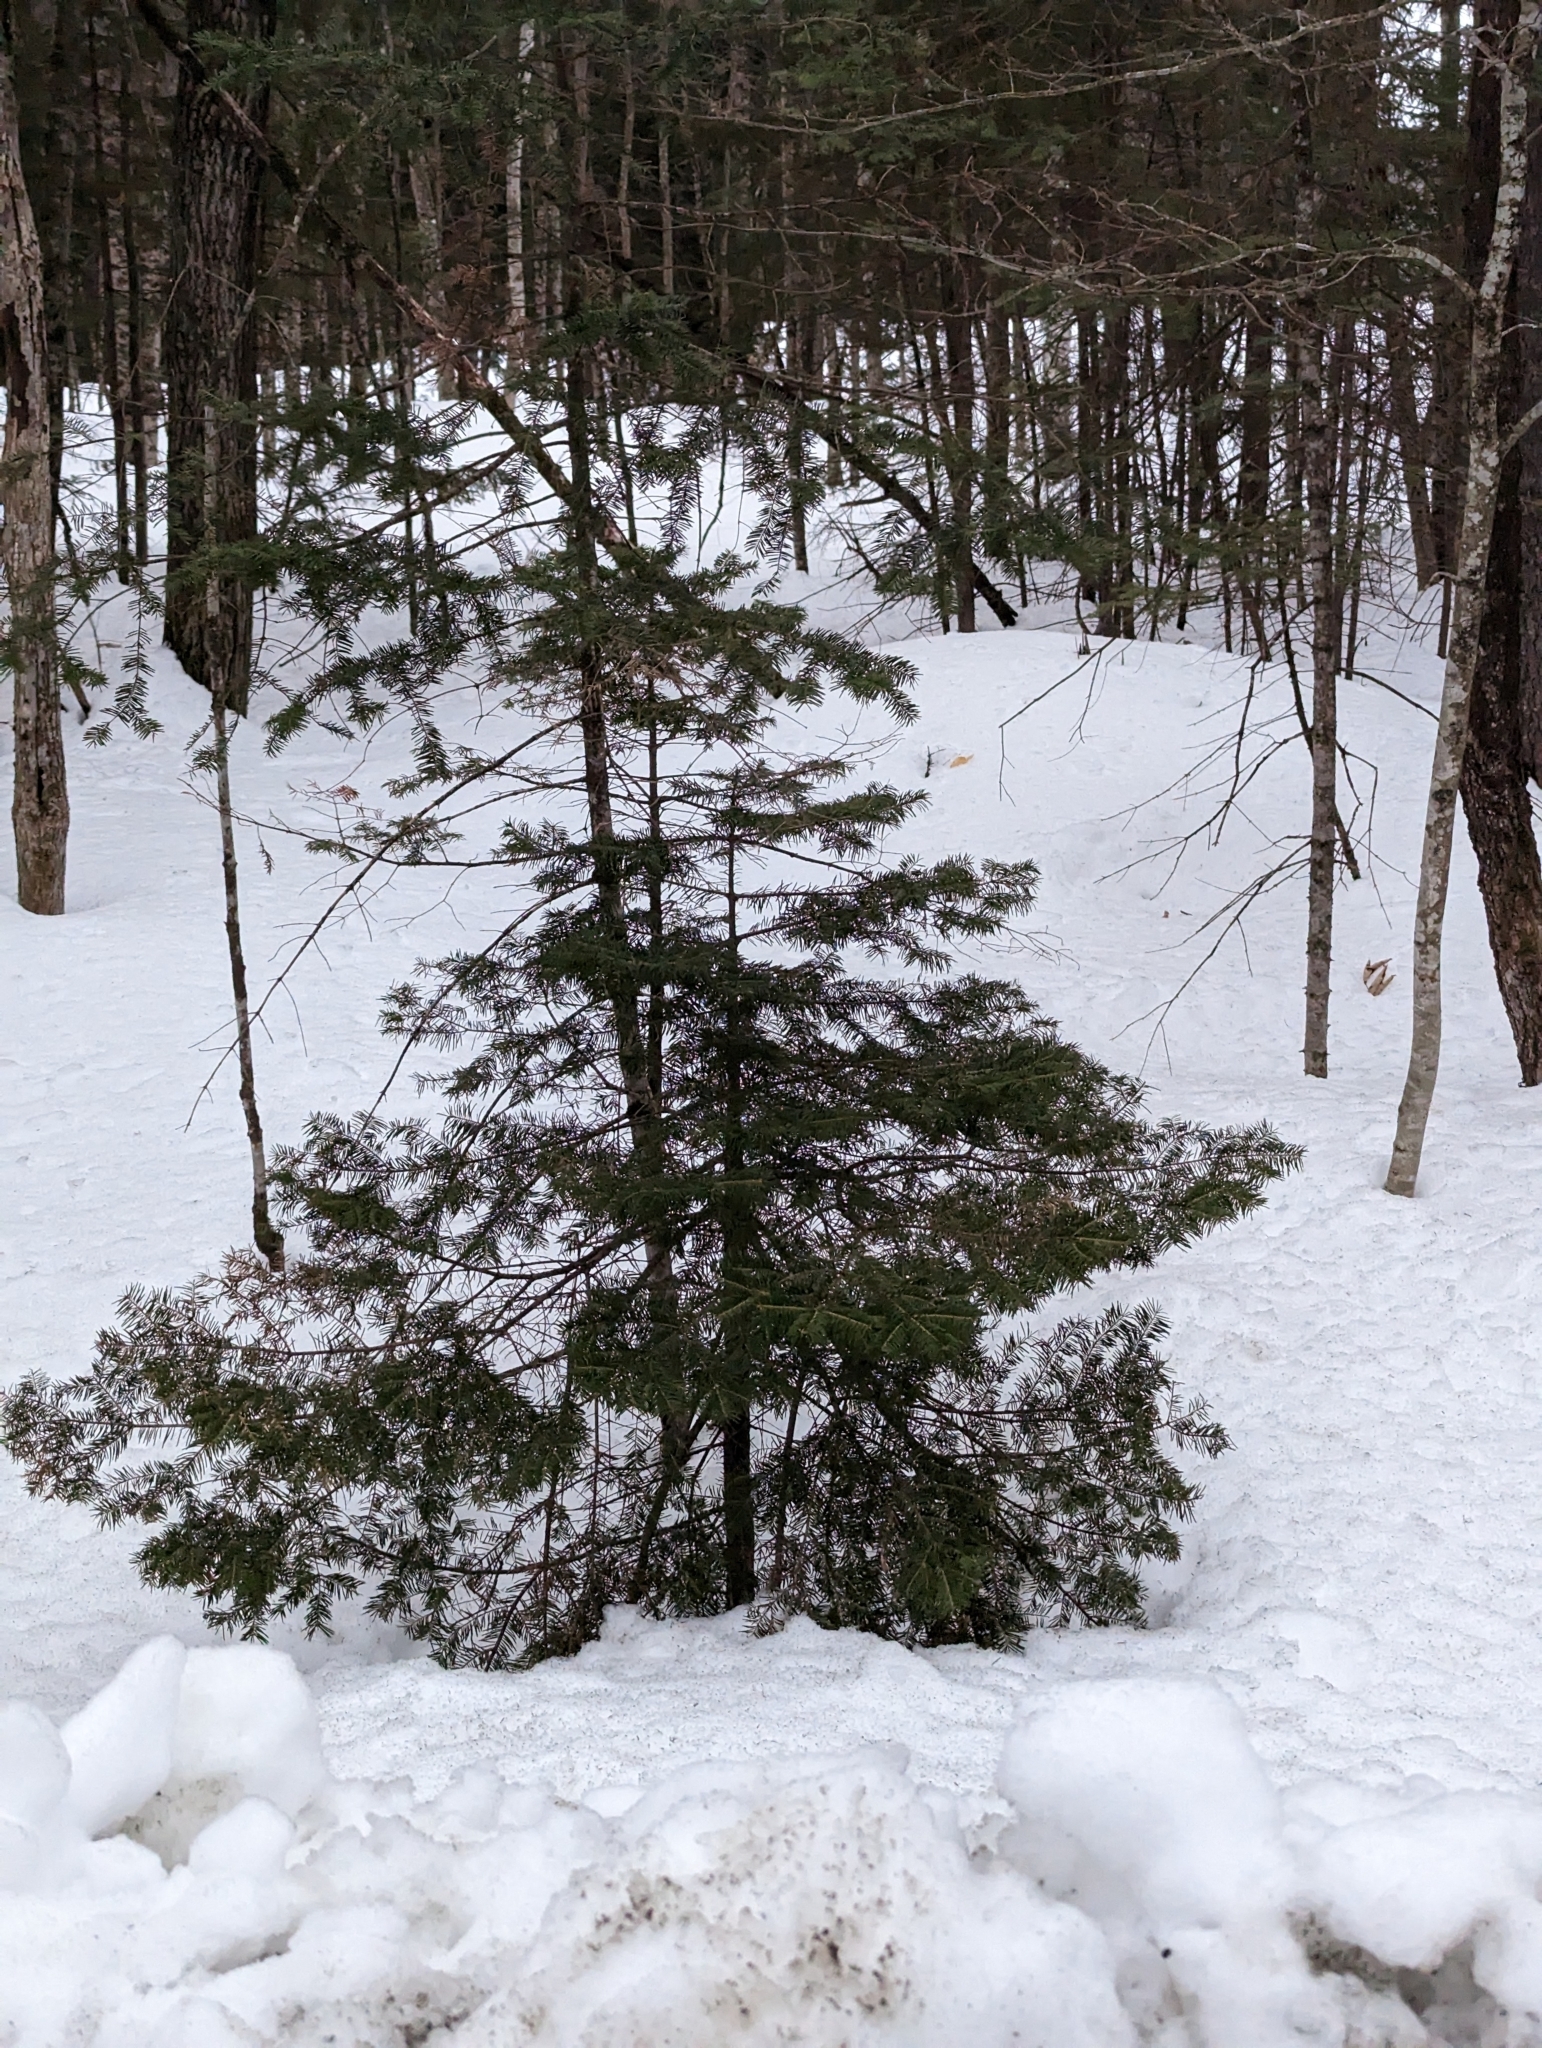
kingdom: Plantae
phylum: Tracheophyta
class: Pinopsida
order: Pinales
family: Pinaceae
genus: Abies
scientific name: Abies balsamea
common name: Balsam fir
